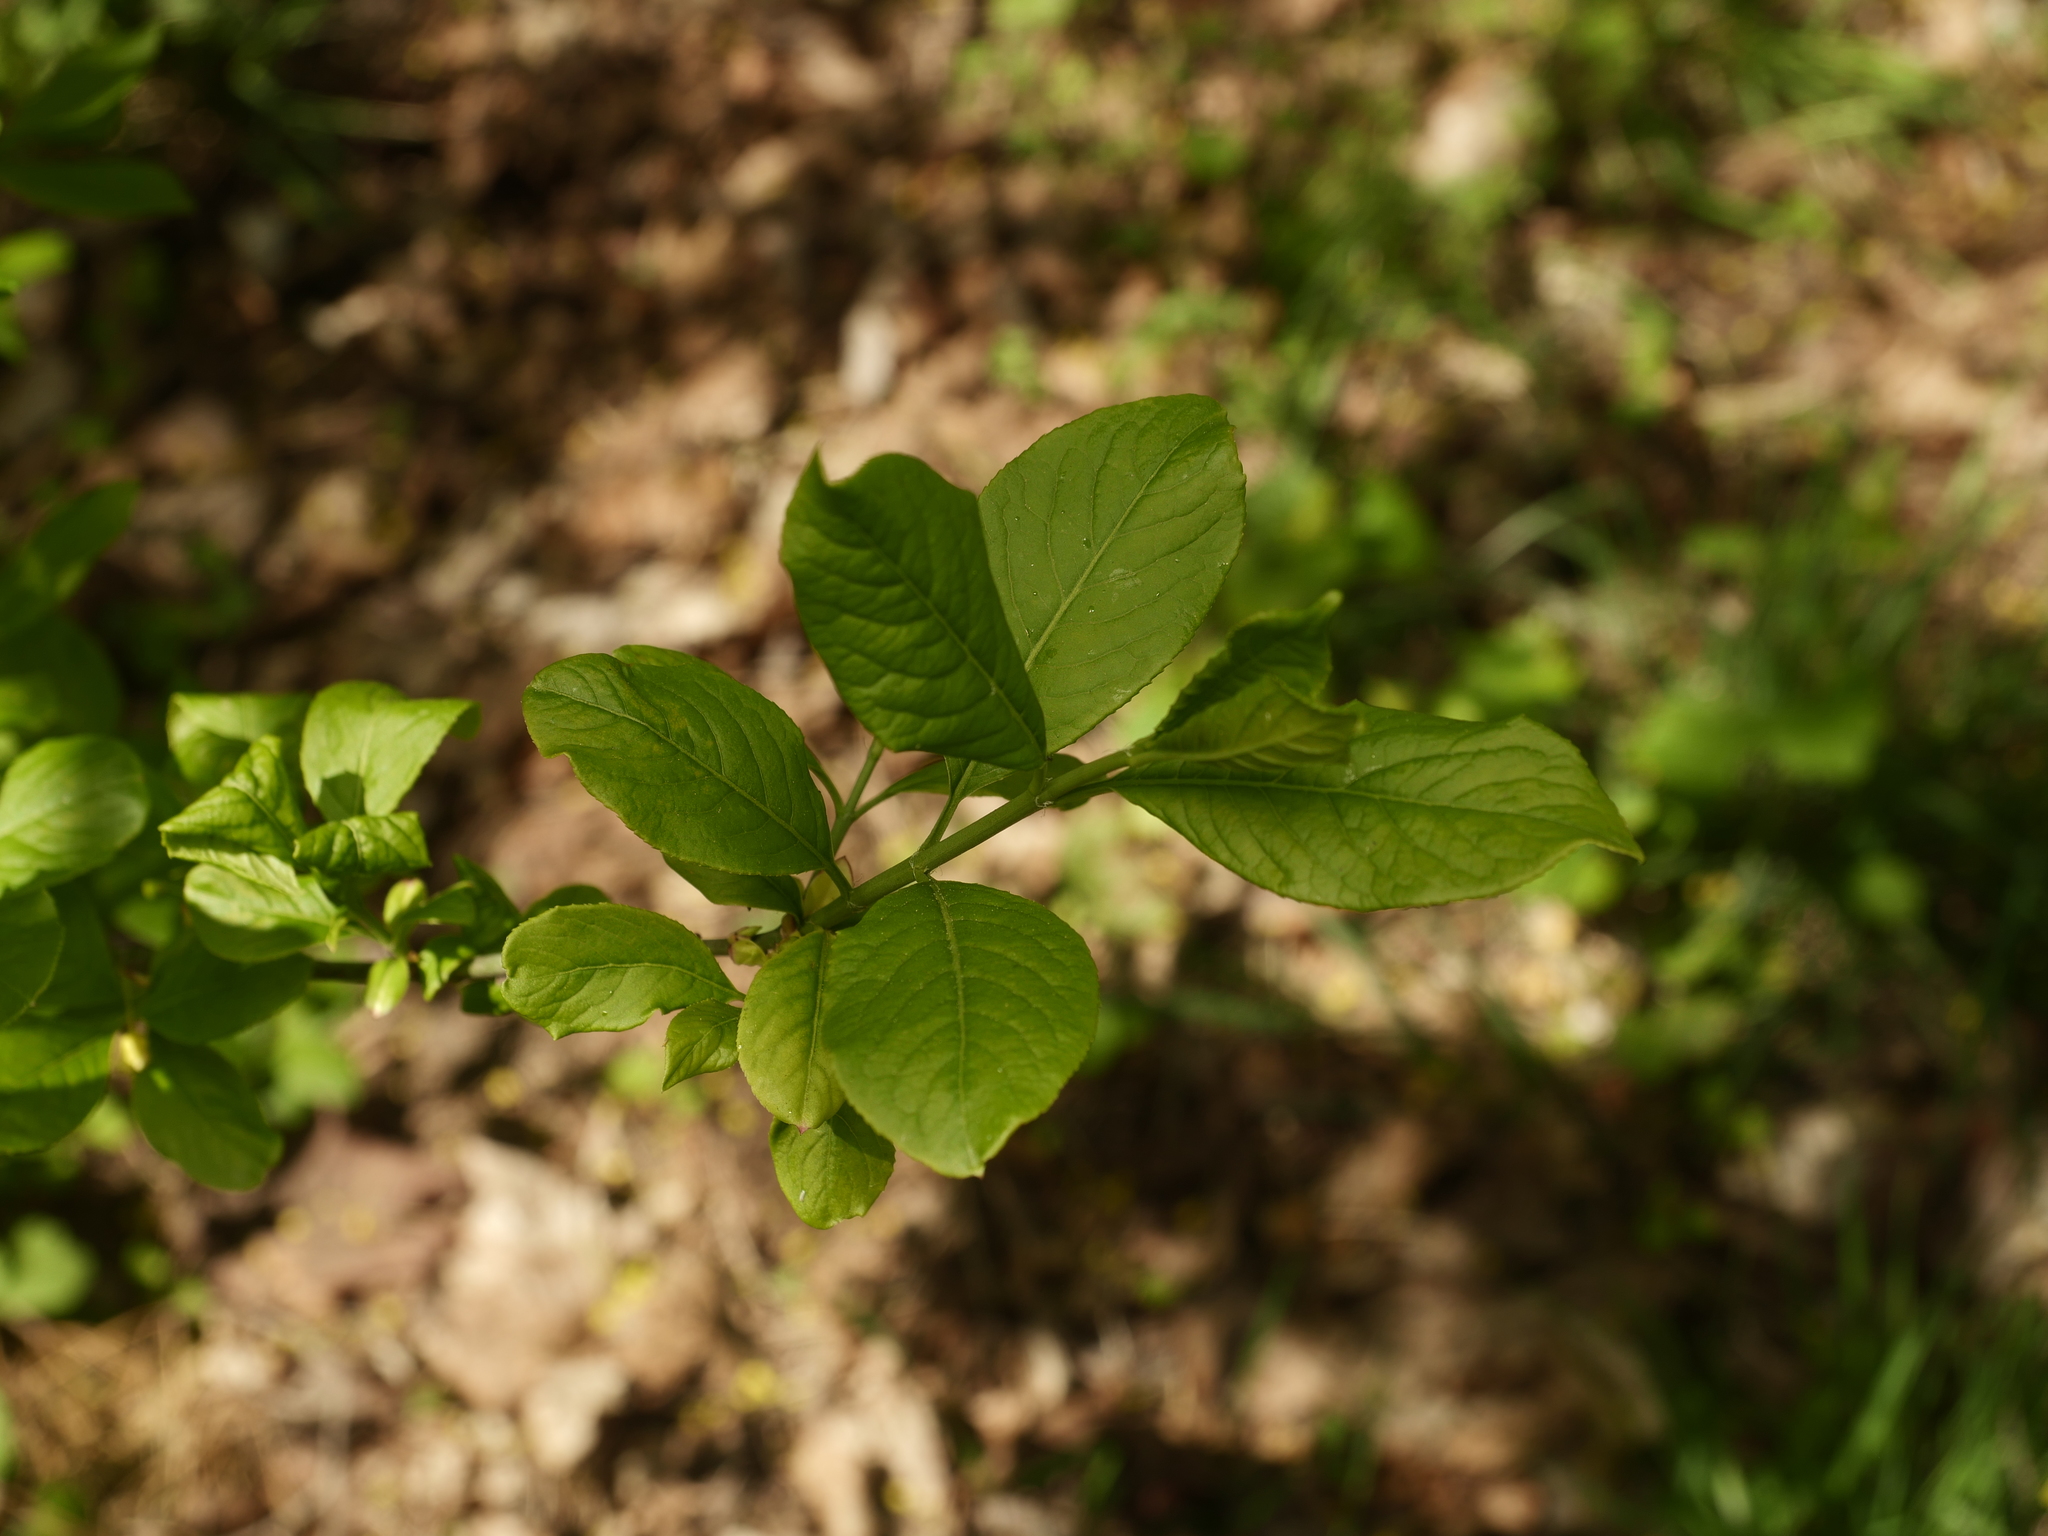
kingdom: Plantae
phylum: Tracheophyta
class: Magnoliopsida
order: Celastrales
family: Celastraceae
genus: Euonymus
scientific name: Euonymus europaeus
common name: Spindle
